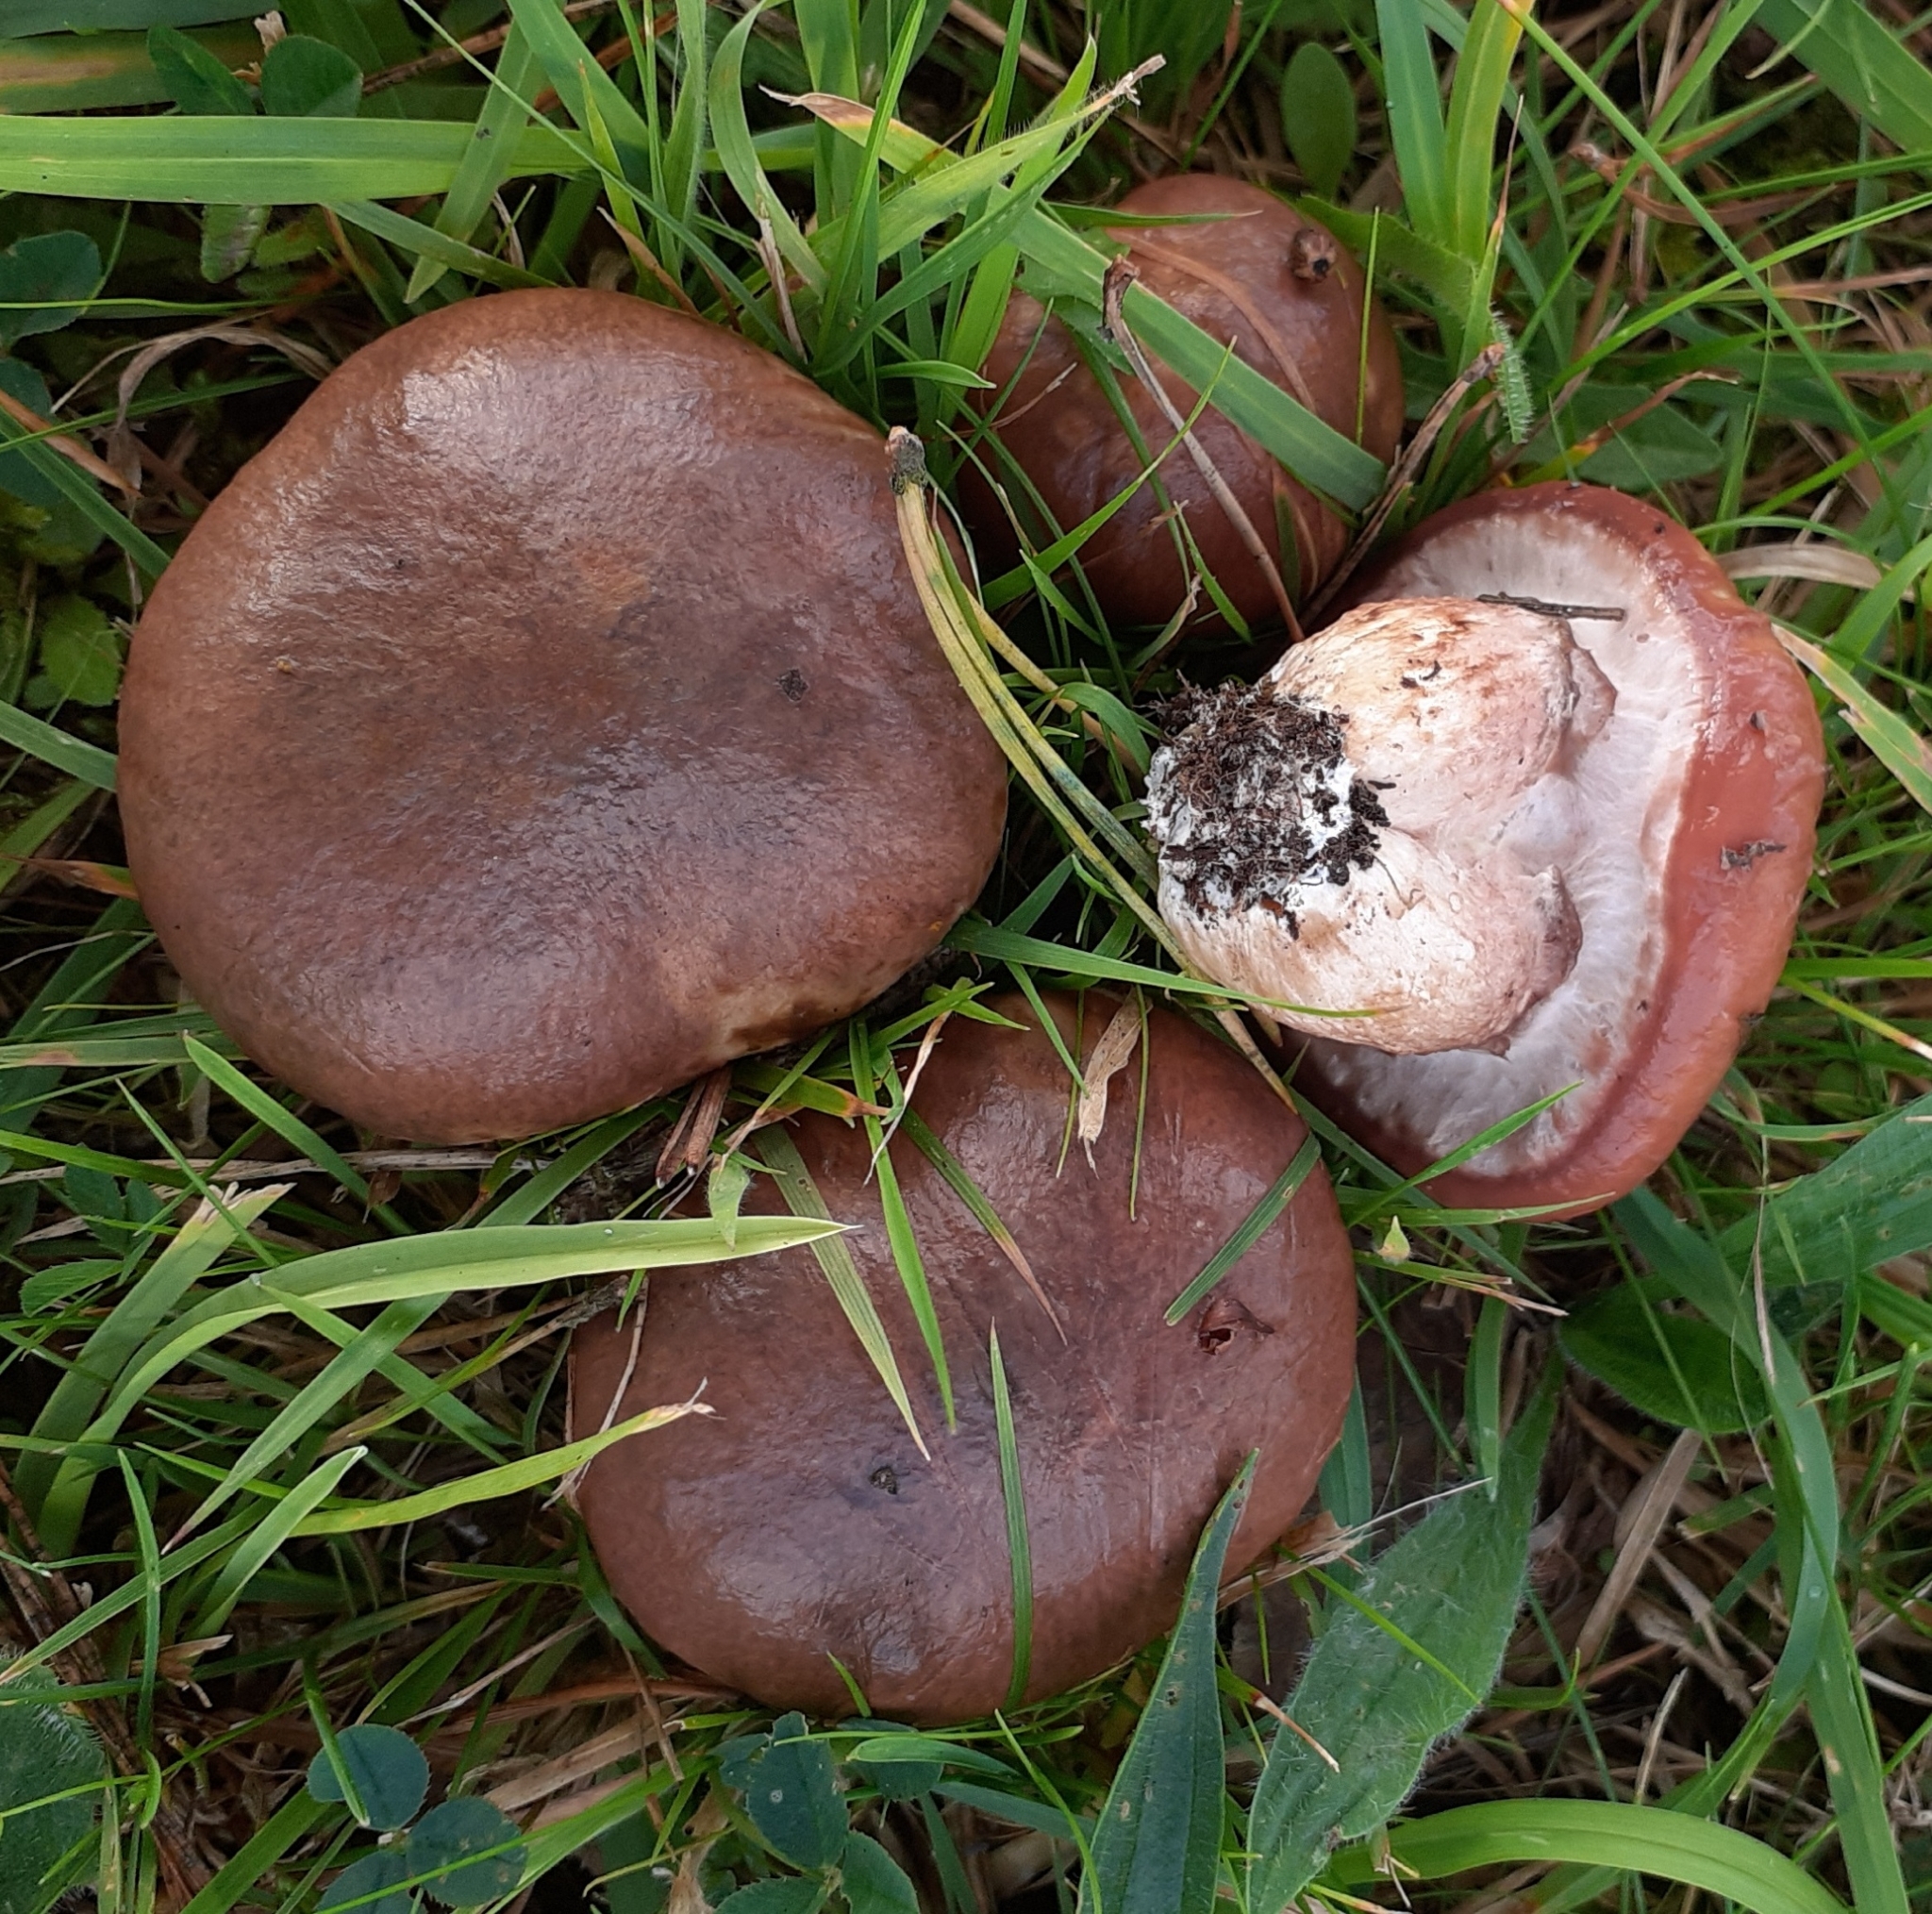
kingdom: Fungi
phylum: Basidiomycota
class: Agaricomycetes
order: Boletales
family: Suillaceae
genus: Suillus
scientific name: Suillus luteus
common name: Slippery jack
